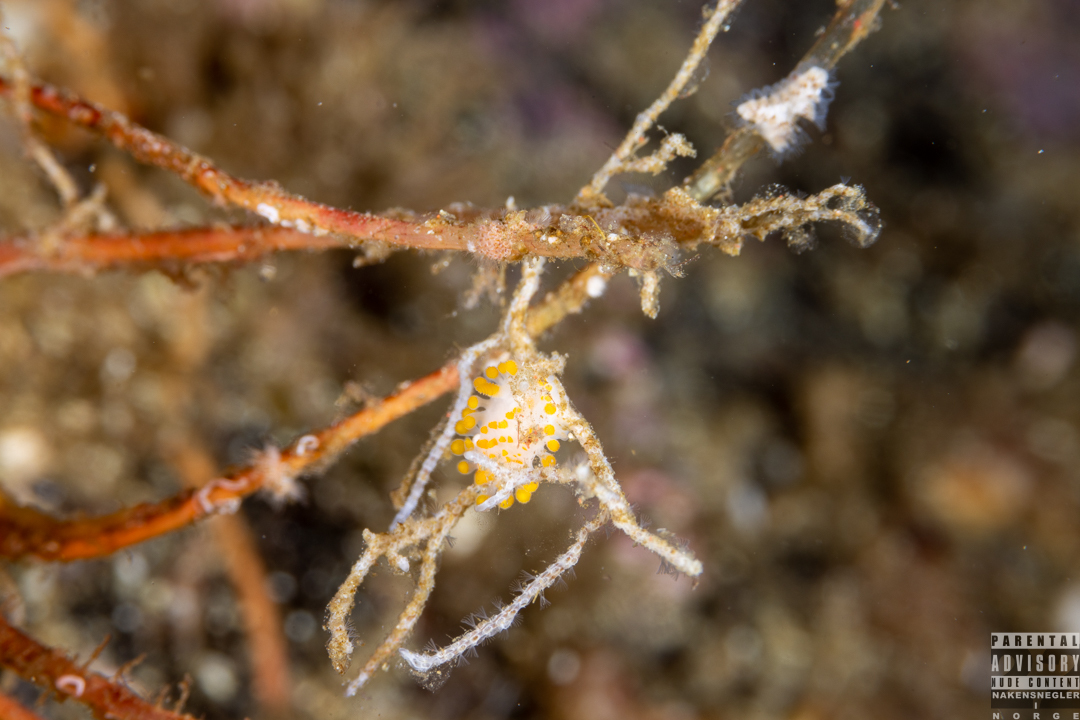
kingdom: Animalia
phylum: Mollusca
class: Gastropoda
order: Nudibranchia
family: Polyceridae
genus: Limacia
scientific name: Limacia clavigera
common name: Orange-clubbed sea slug
